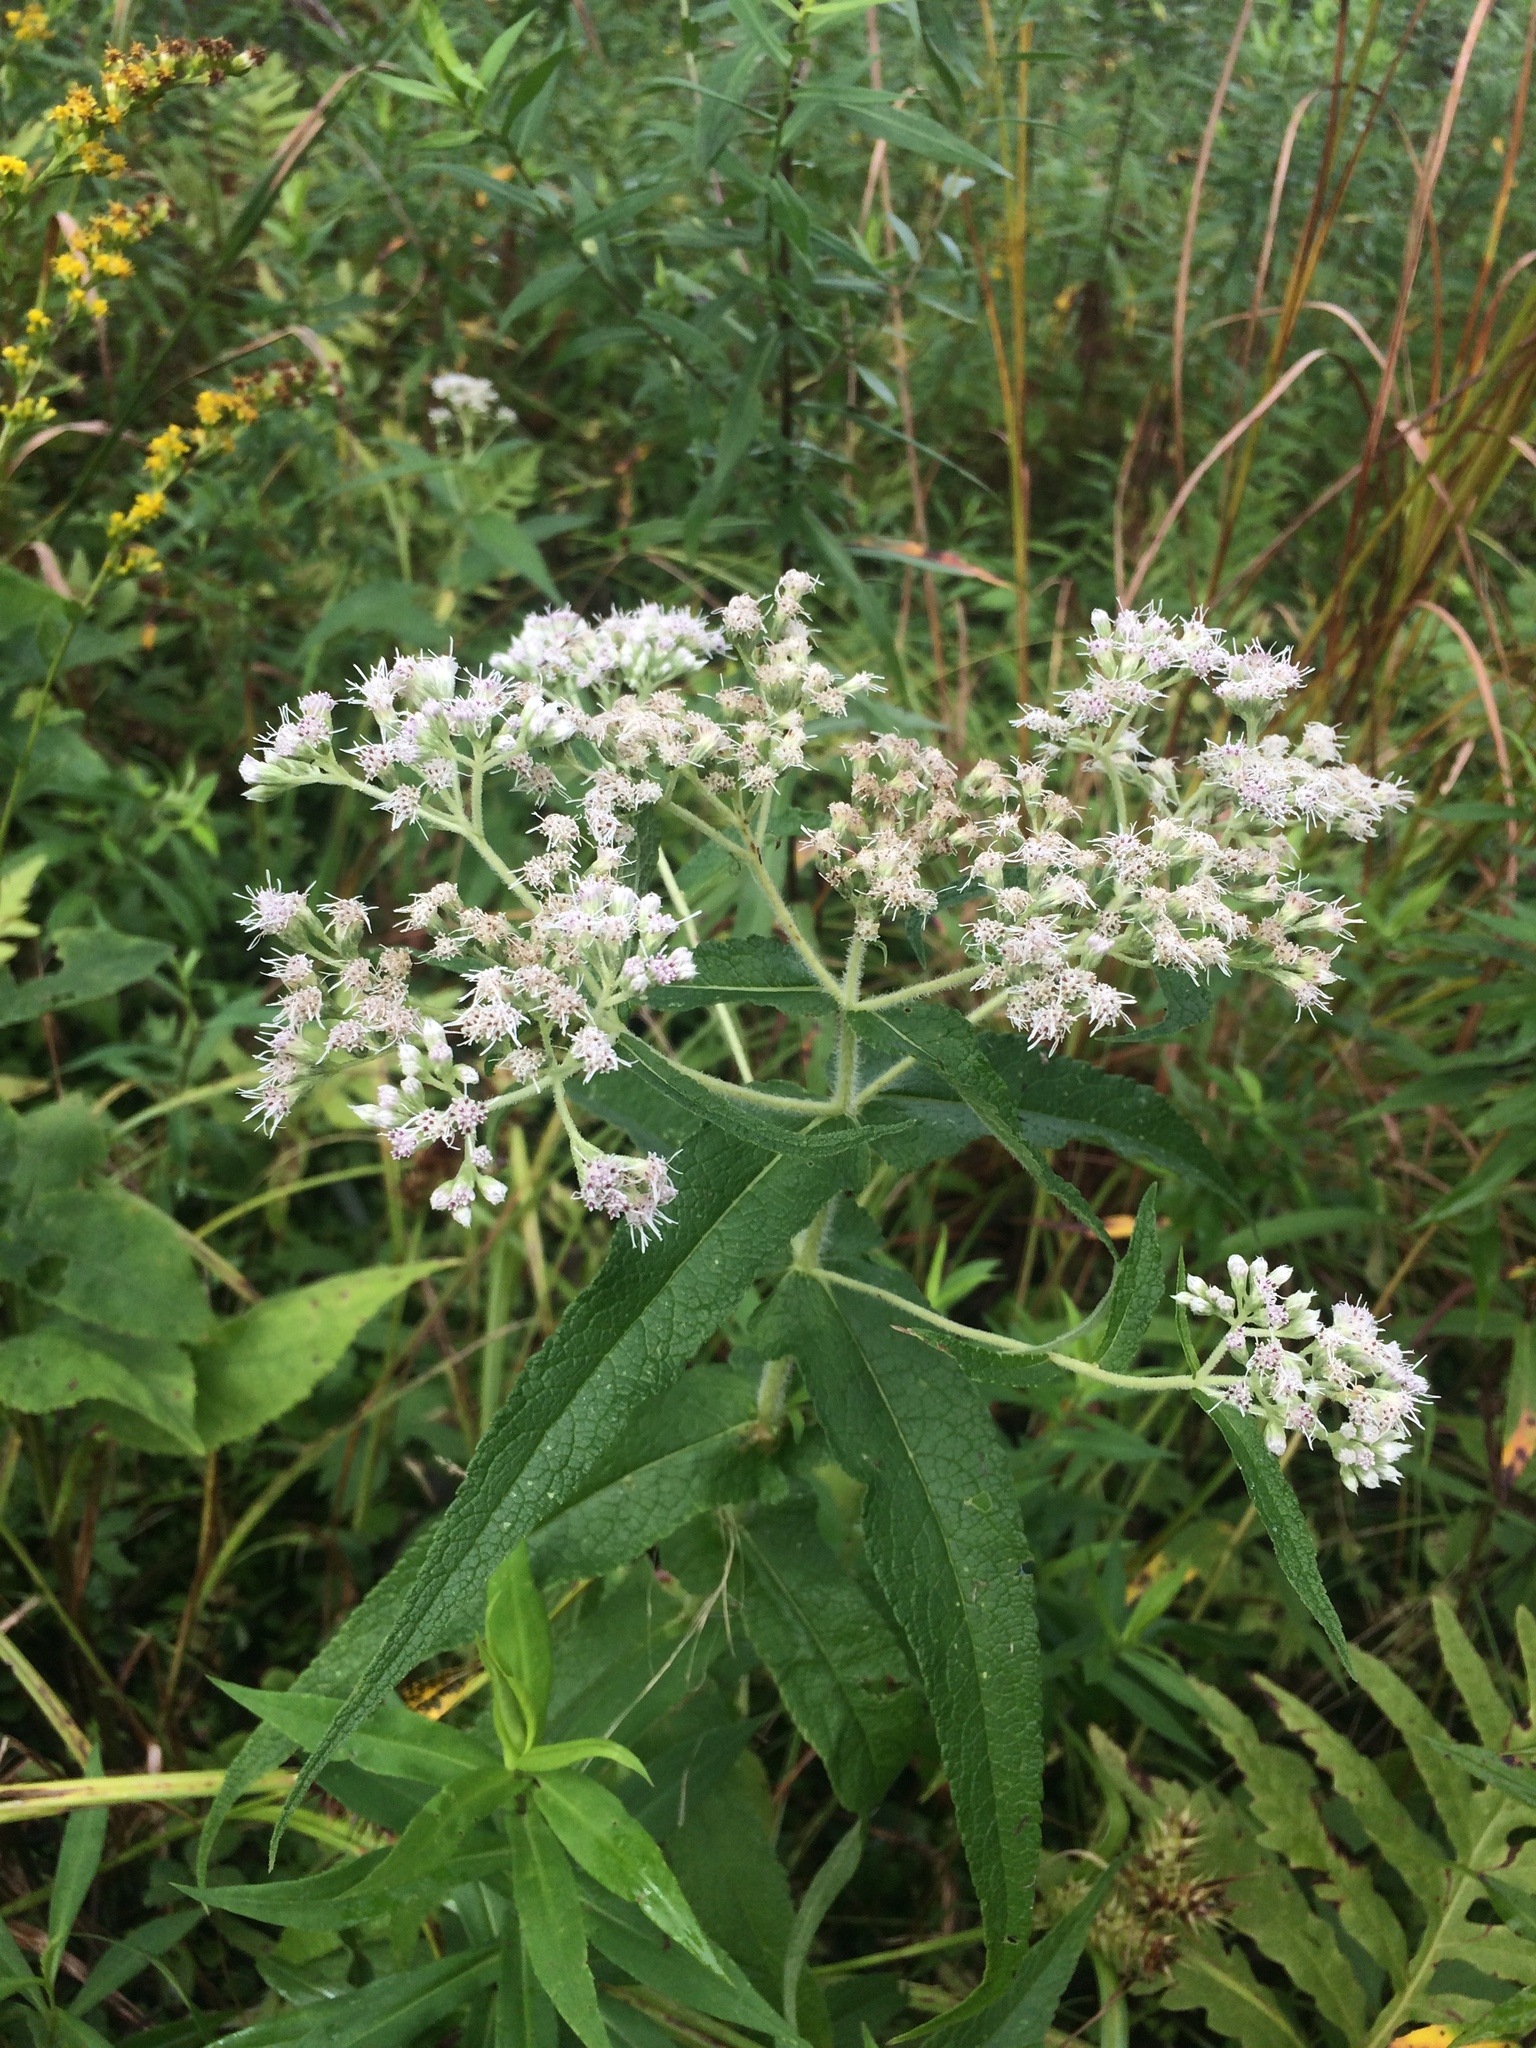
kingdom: Plantae
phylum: Tracheophyta
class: Magnoliopsida
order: Asterales
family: Asteraceae
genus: Eupatorium
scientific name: Eupatorium perfoliatum
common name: Boneset
